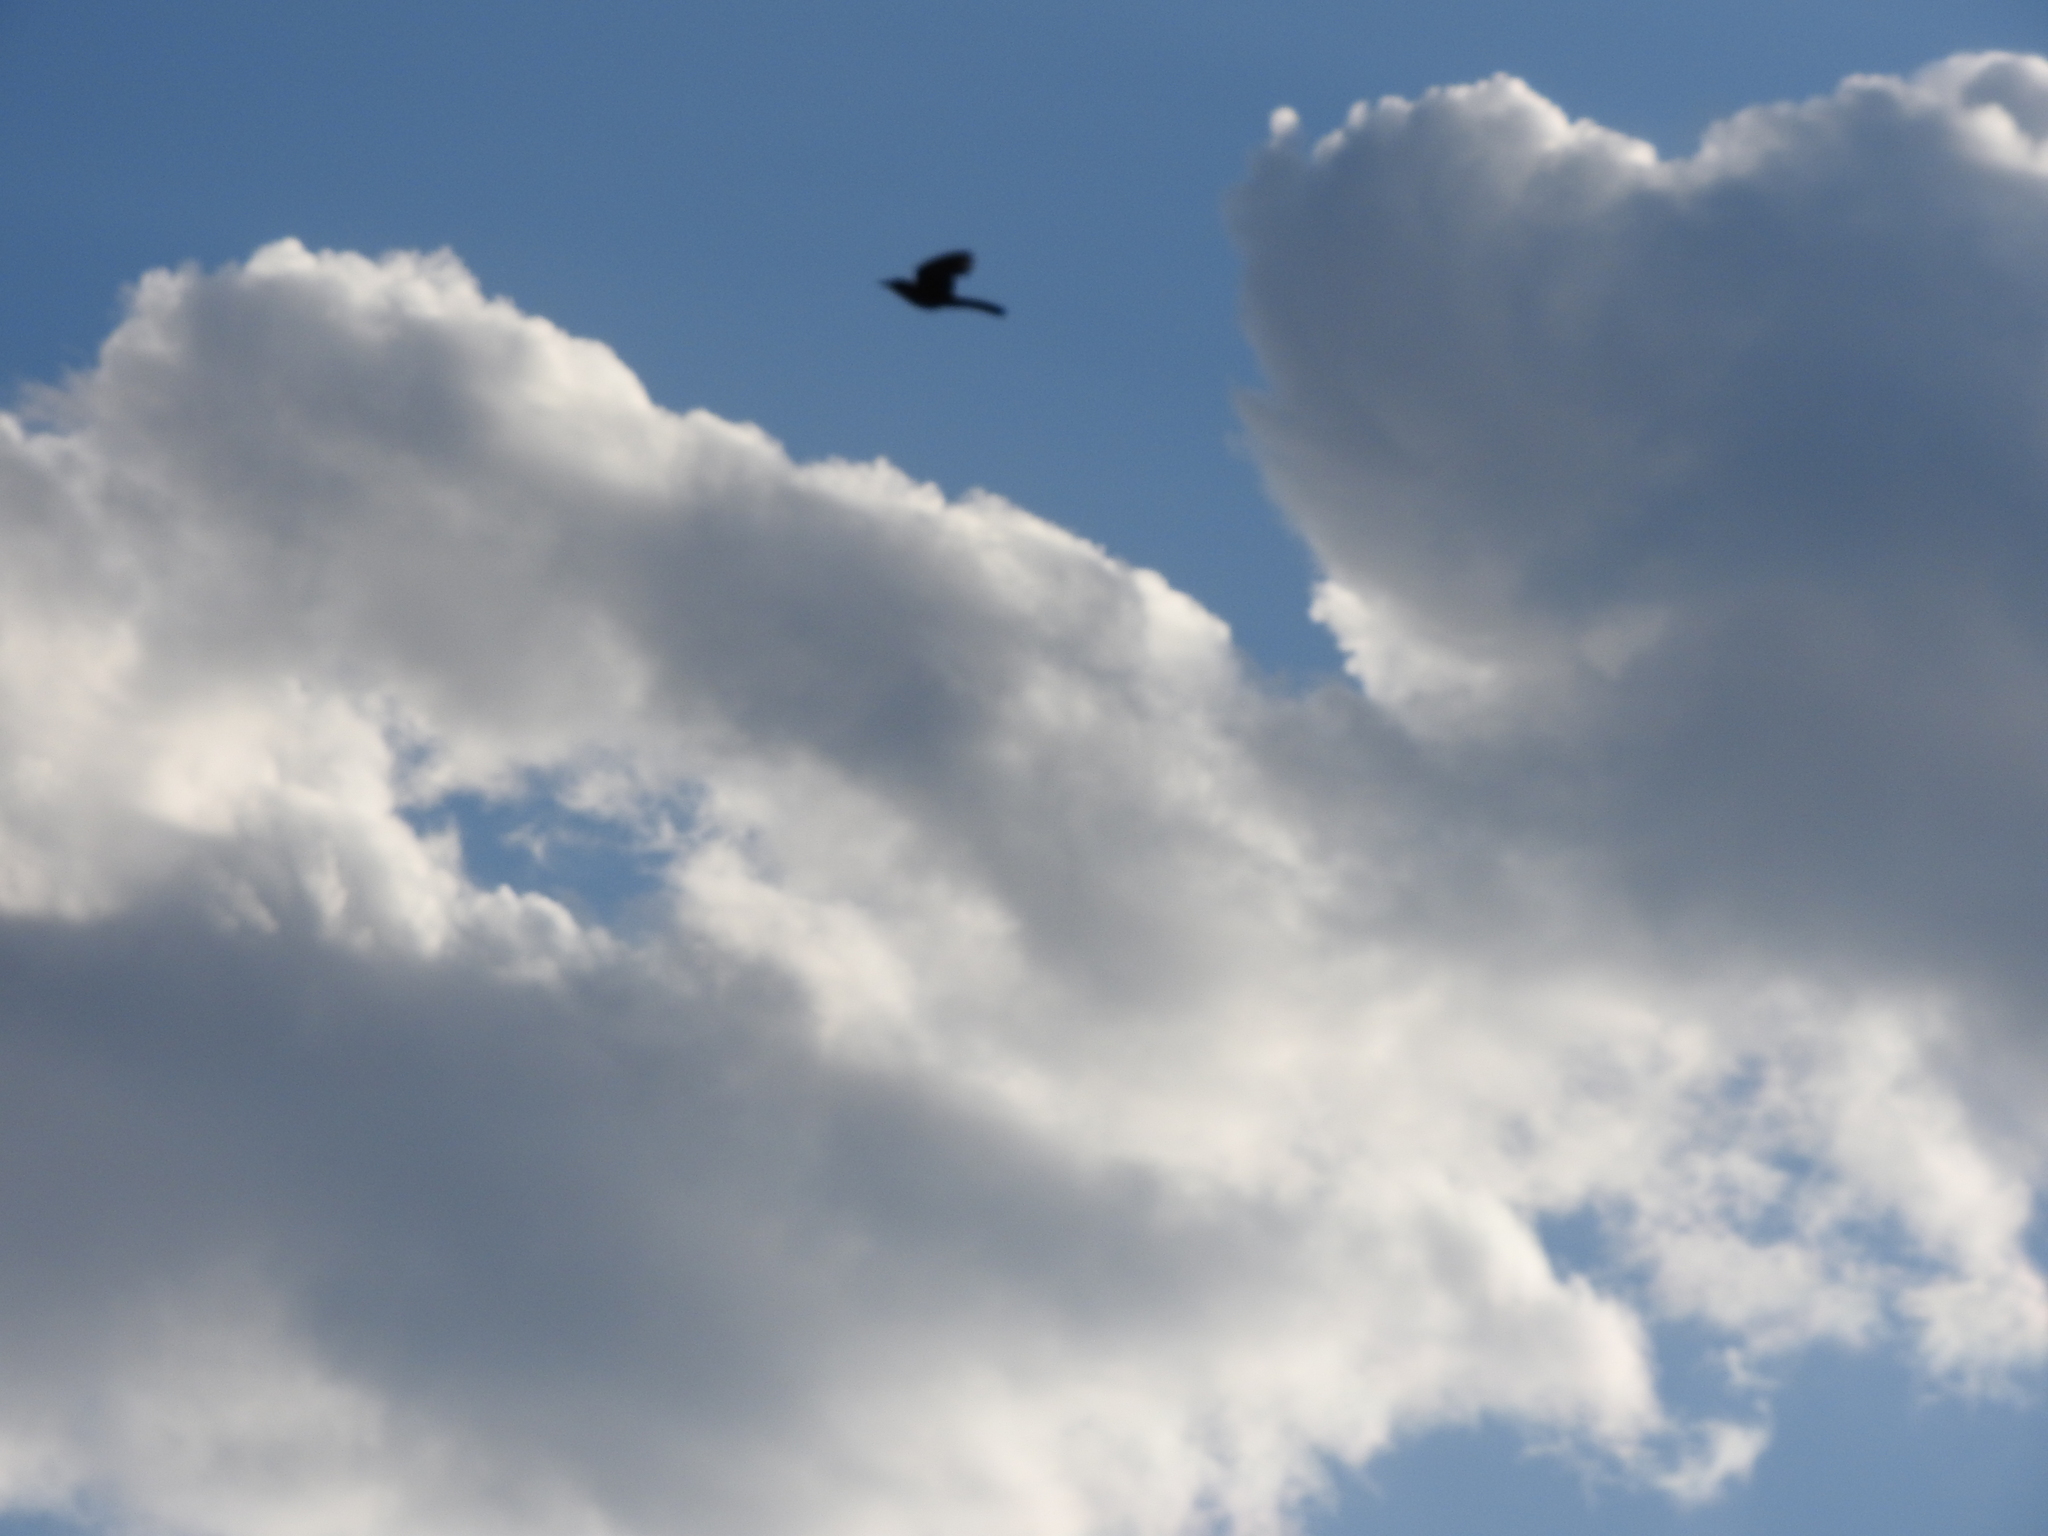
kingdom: Animalia
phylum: Chordata
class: Aves
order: Passeriformes
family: Icteridae
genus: Quiscalus
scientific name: Quiscalus mexicanus
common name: Great-tailed grackle
